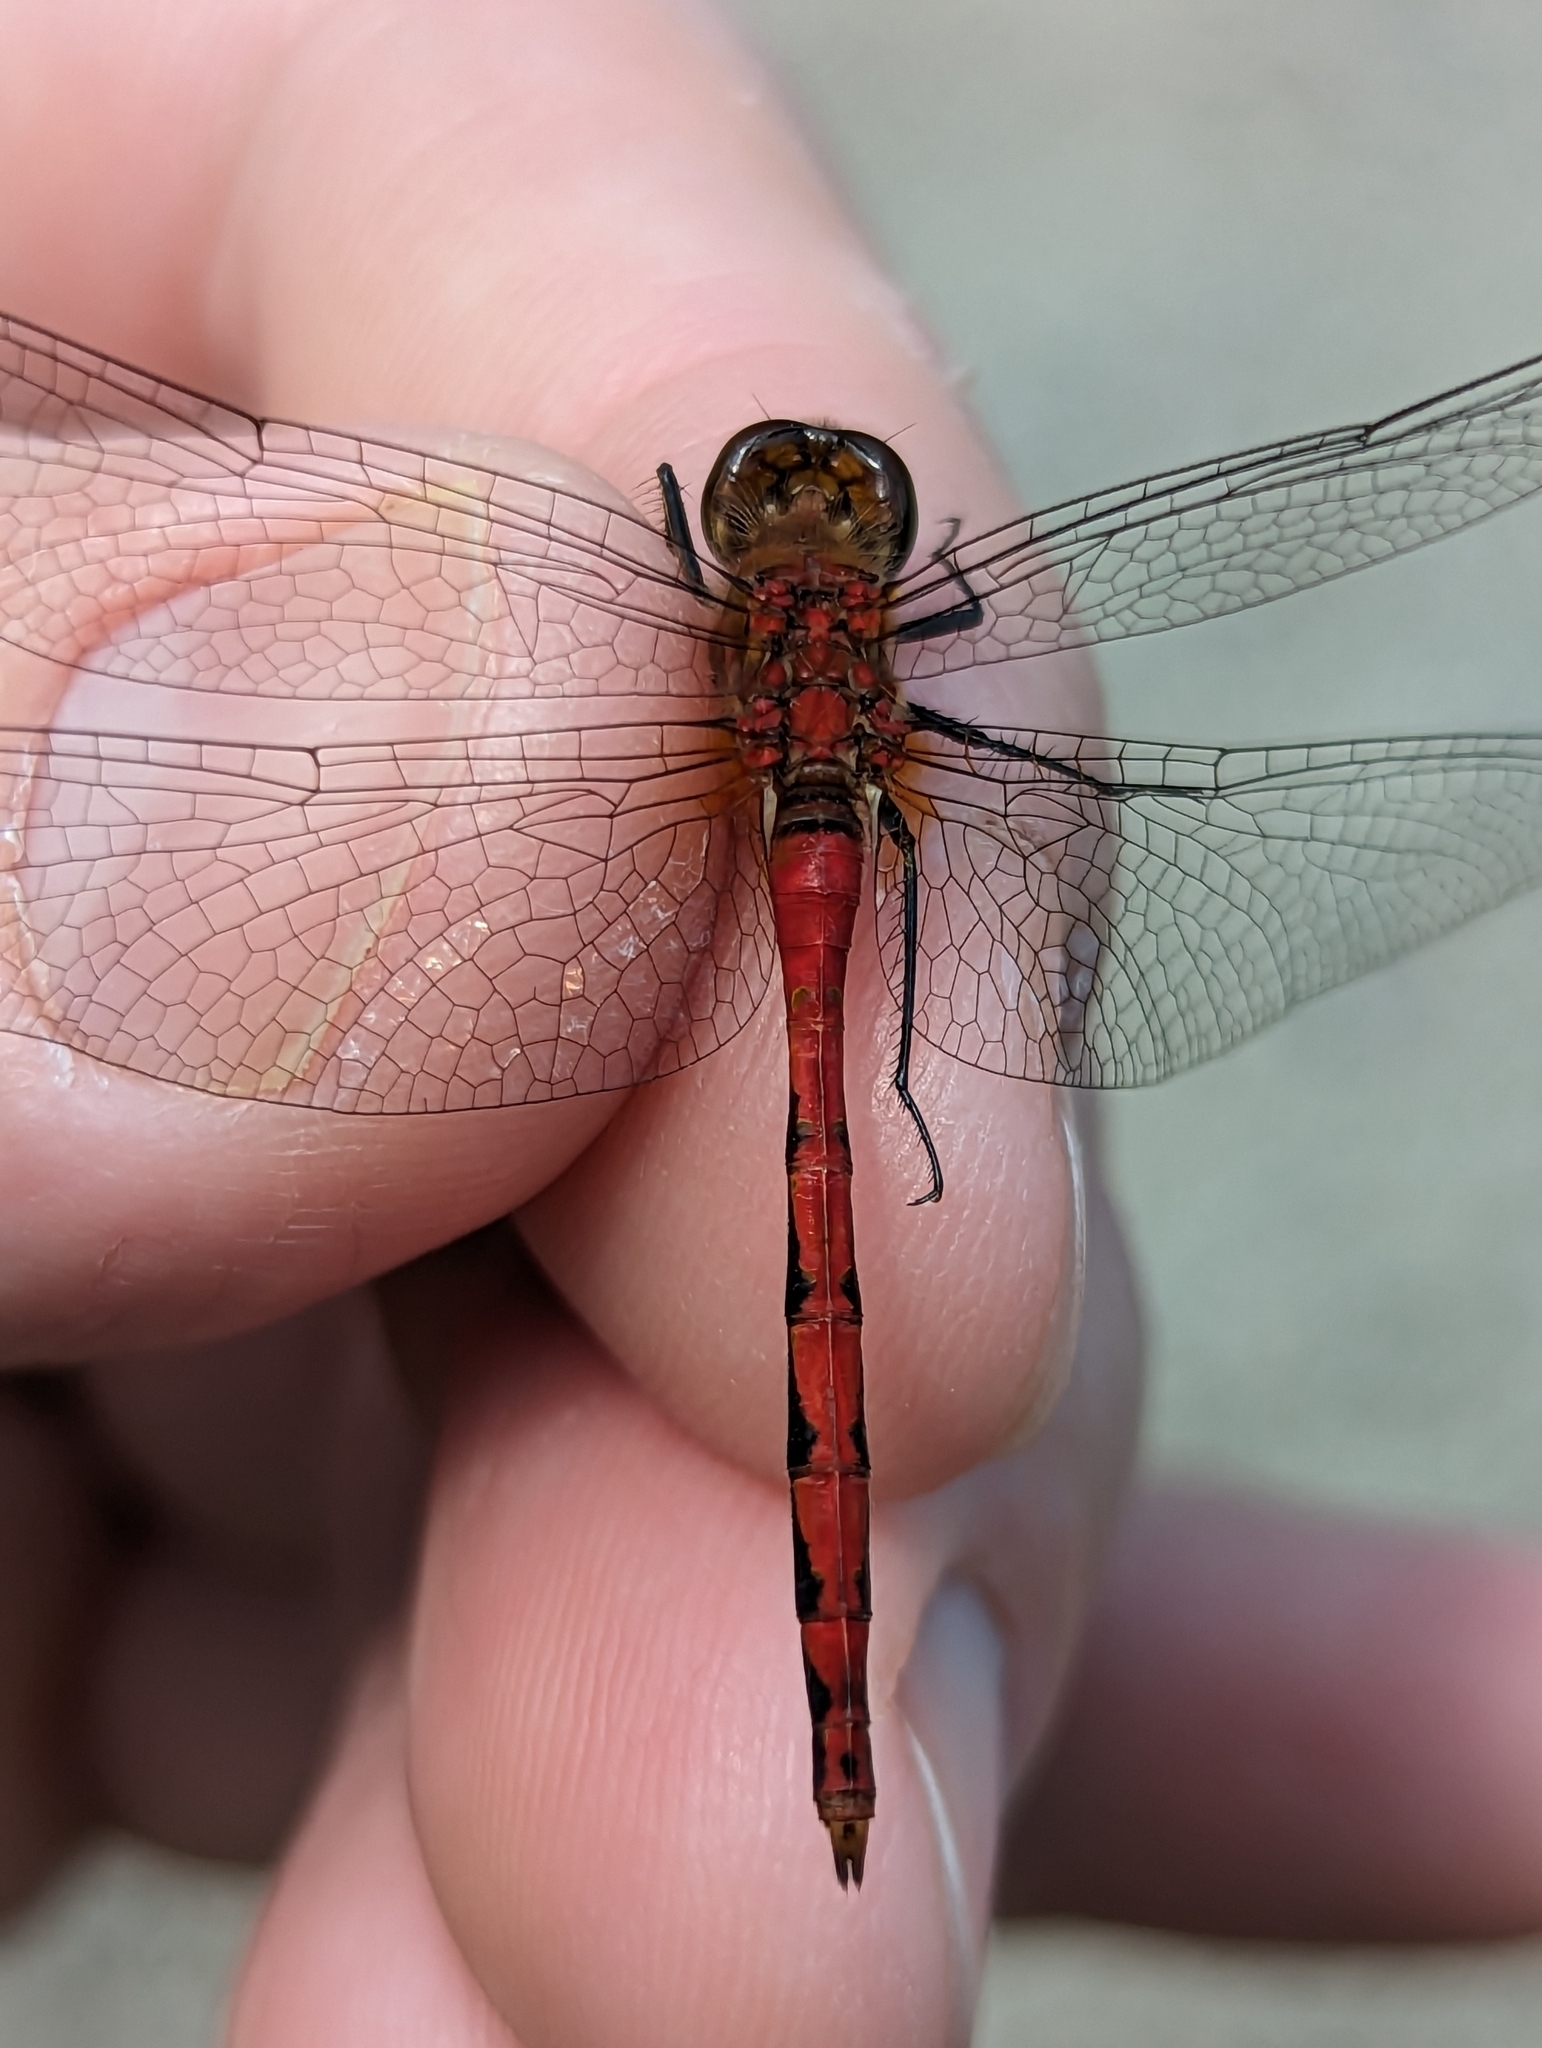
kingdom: Animalia
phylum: Arthropoda
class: Insecta
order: Odonata
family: Libellulidae
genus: Sympetrum
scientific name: Sympetrum obtrusum
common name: White-faced meadowhawk
